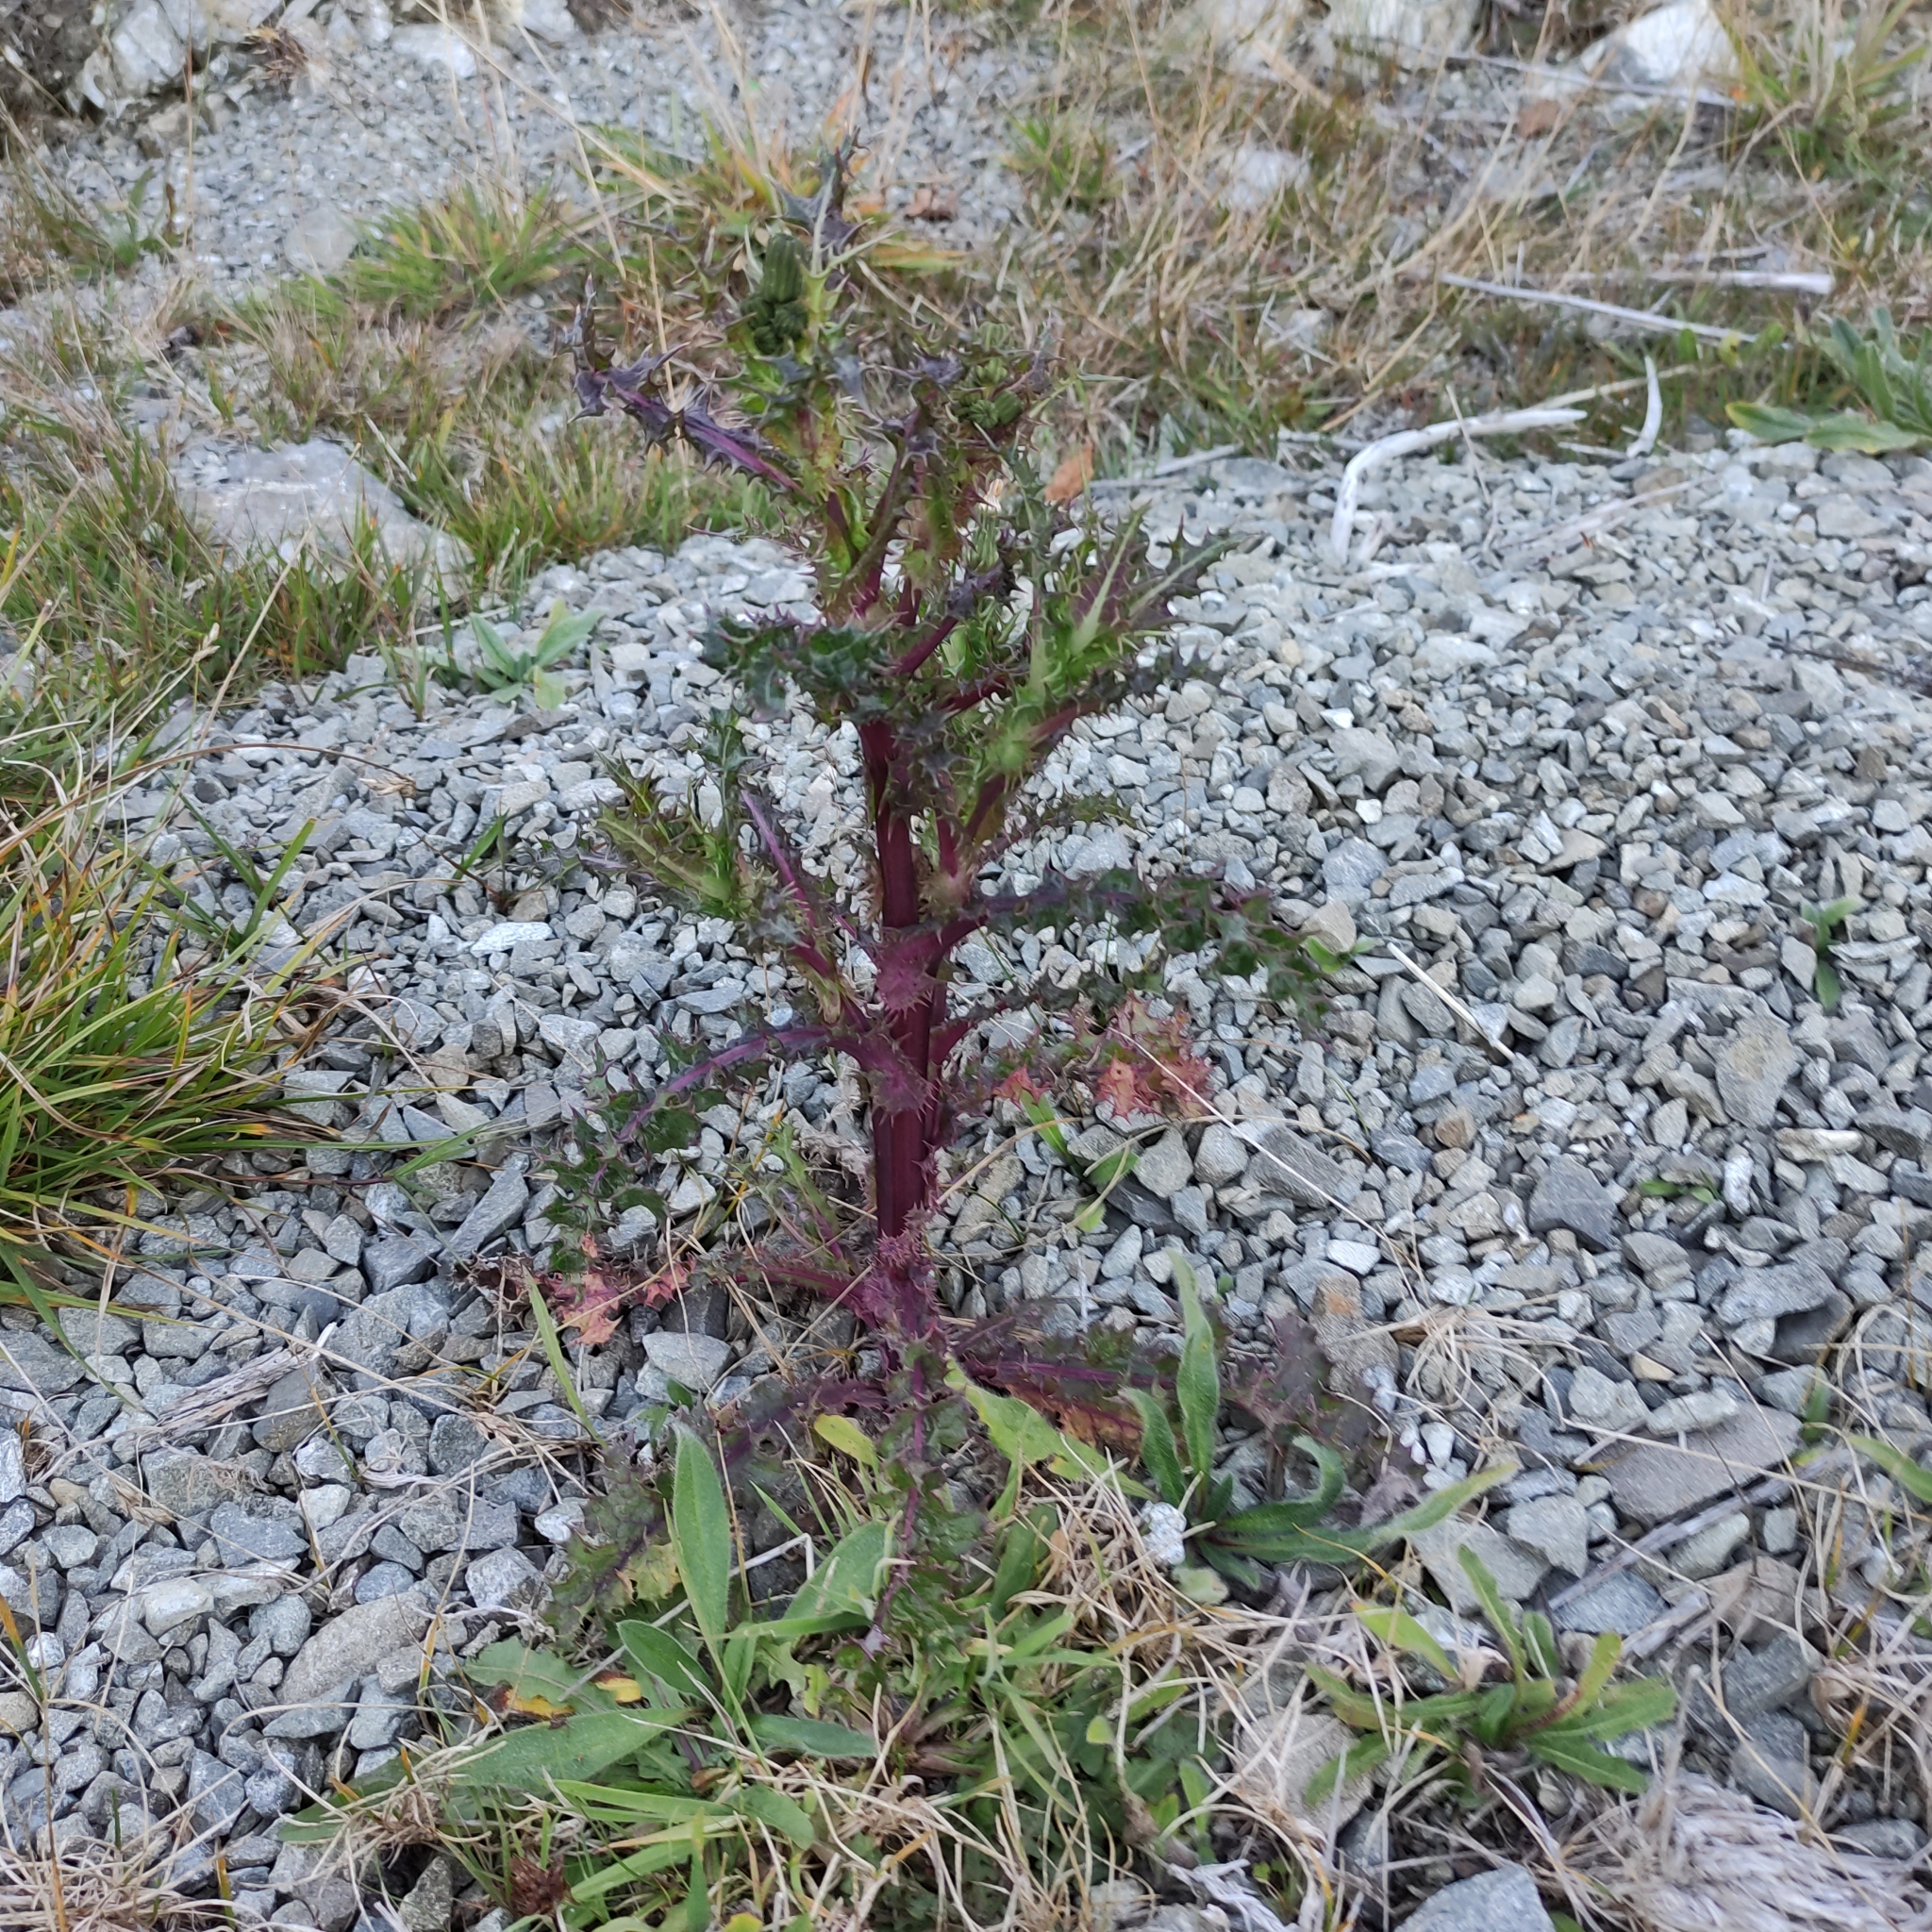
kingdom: Plantae
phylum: Tracheophyta
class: Magnoliopsida
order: Asterales
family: Asteraceae
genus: Sonchus
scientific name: Sonchus asper
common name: Prickly sow-thistle
